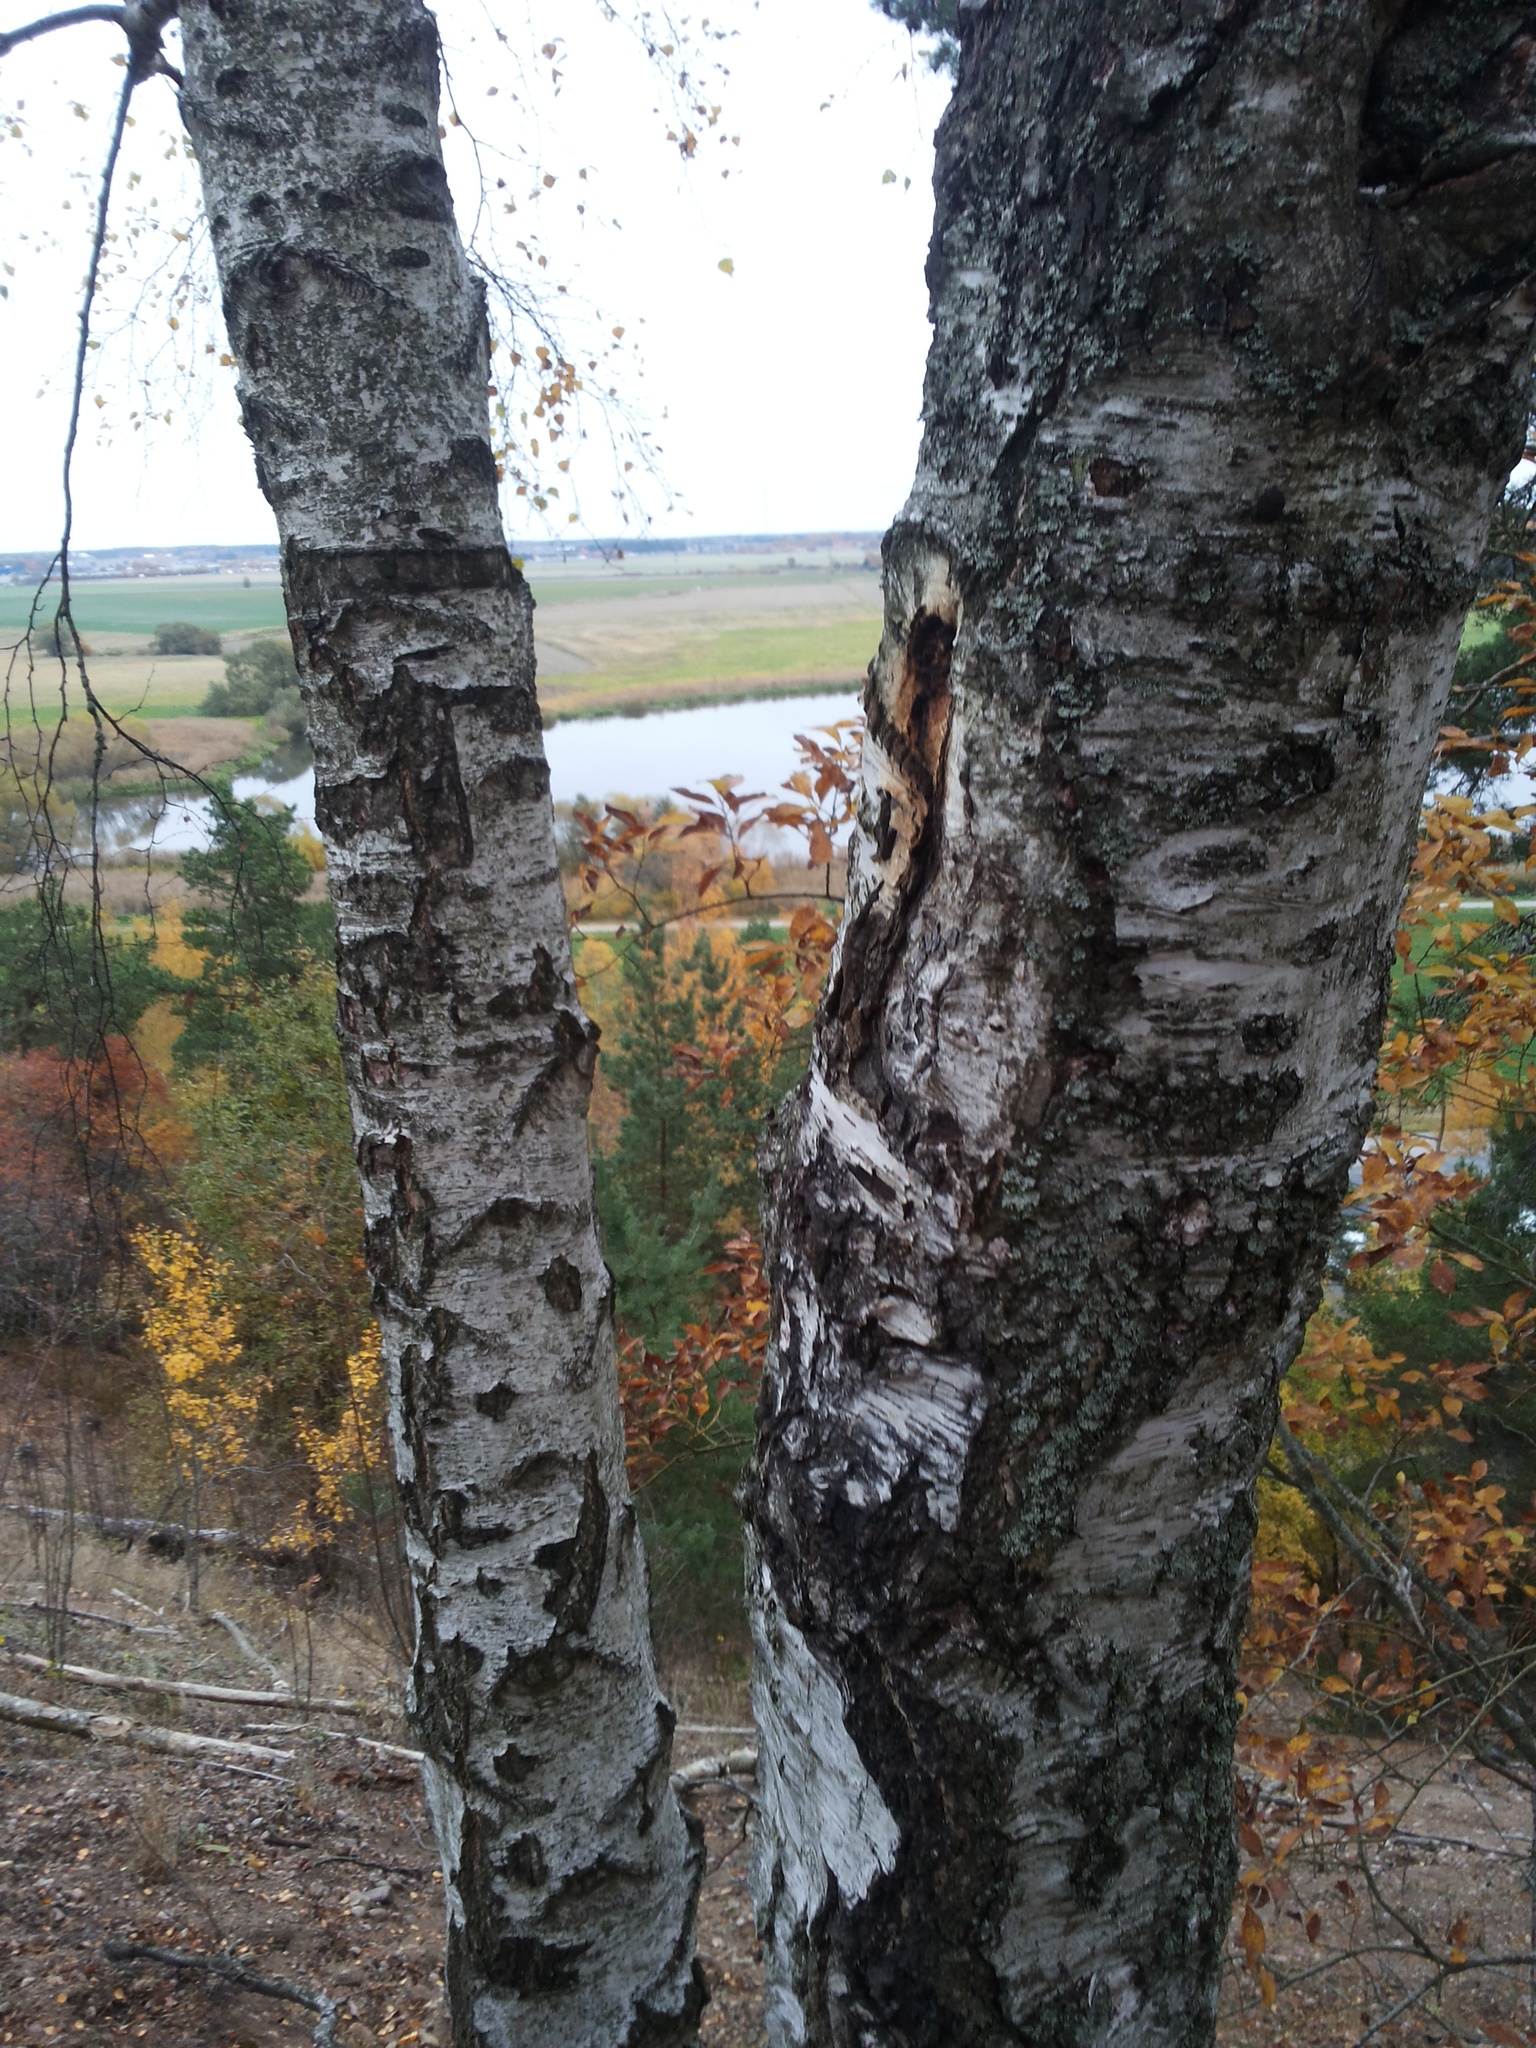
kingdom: Plantae
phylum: Tracheophyta
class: Magnoliopsida
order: Fagales
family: Betulaceae
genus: Betula
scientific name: Betula pendula
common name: Silver birch
